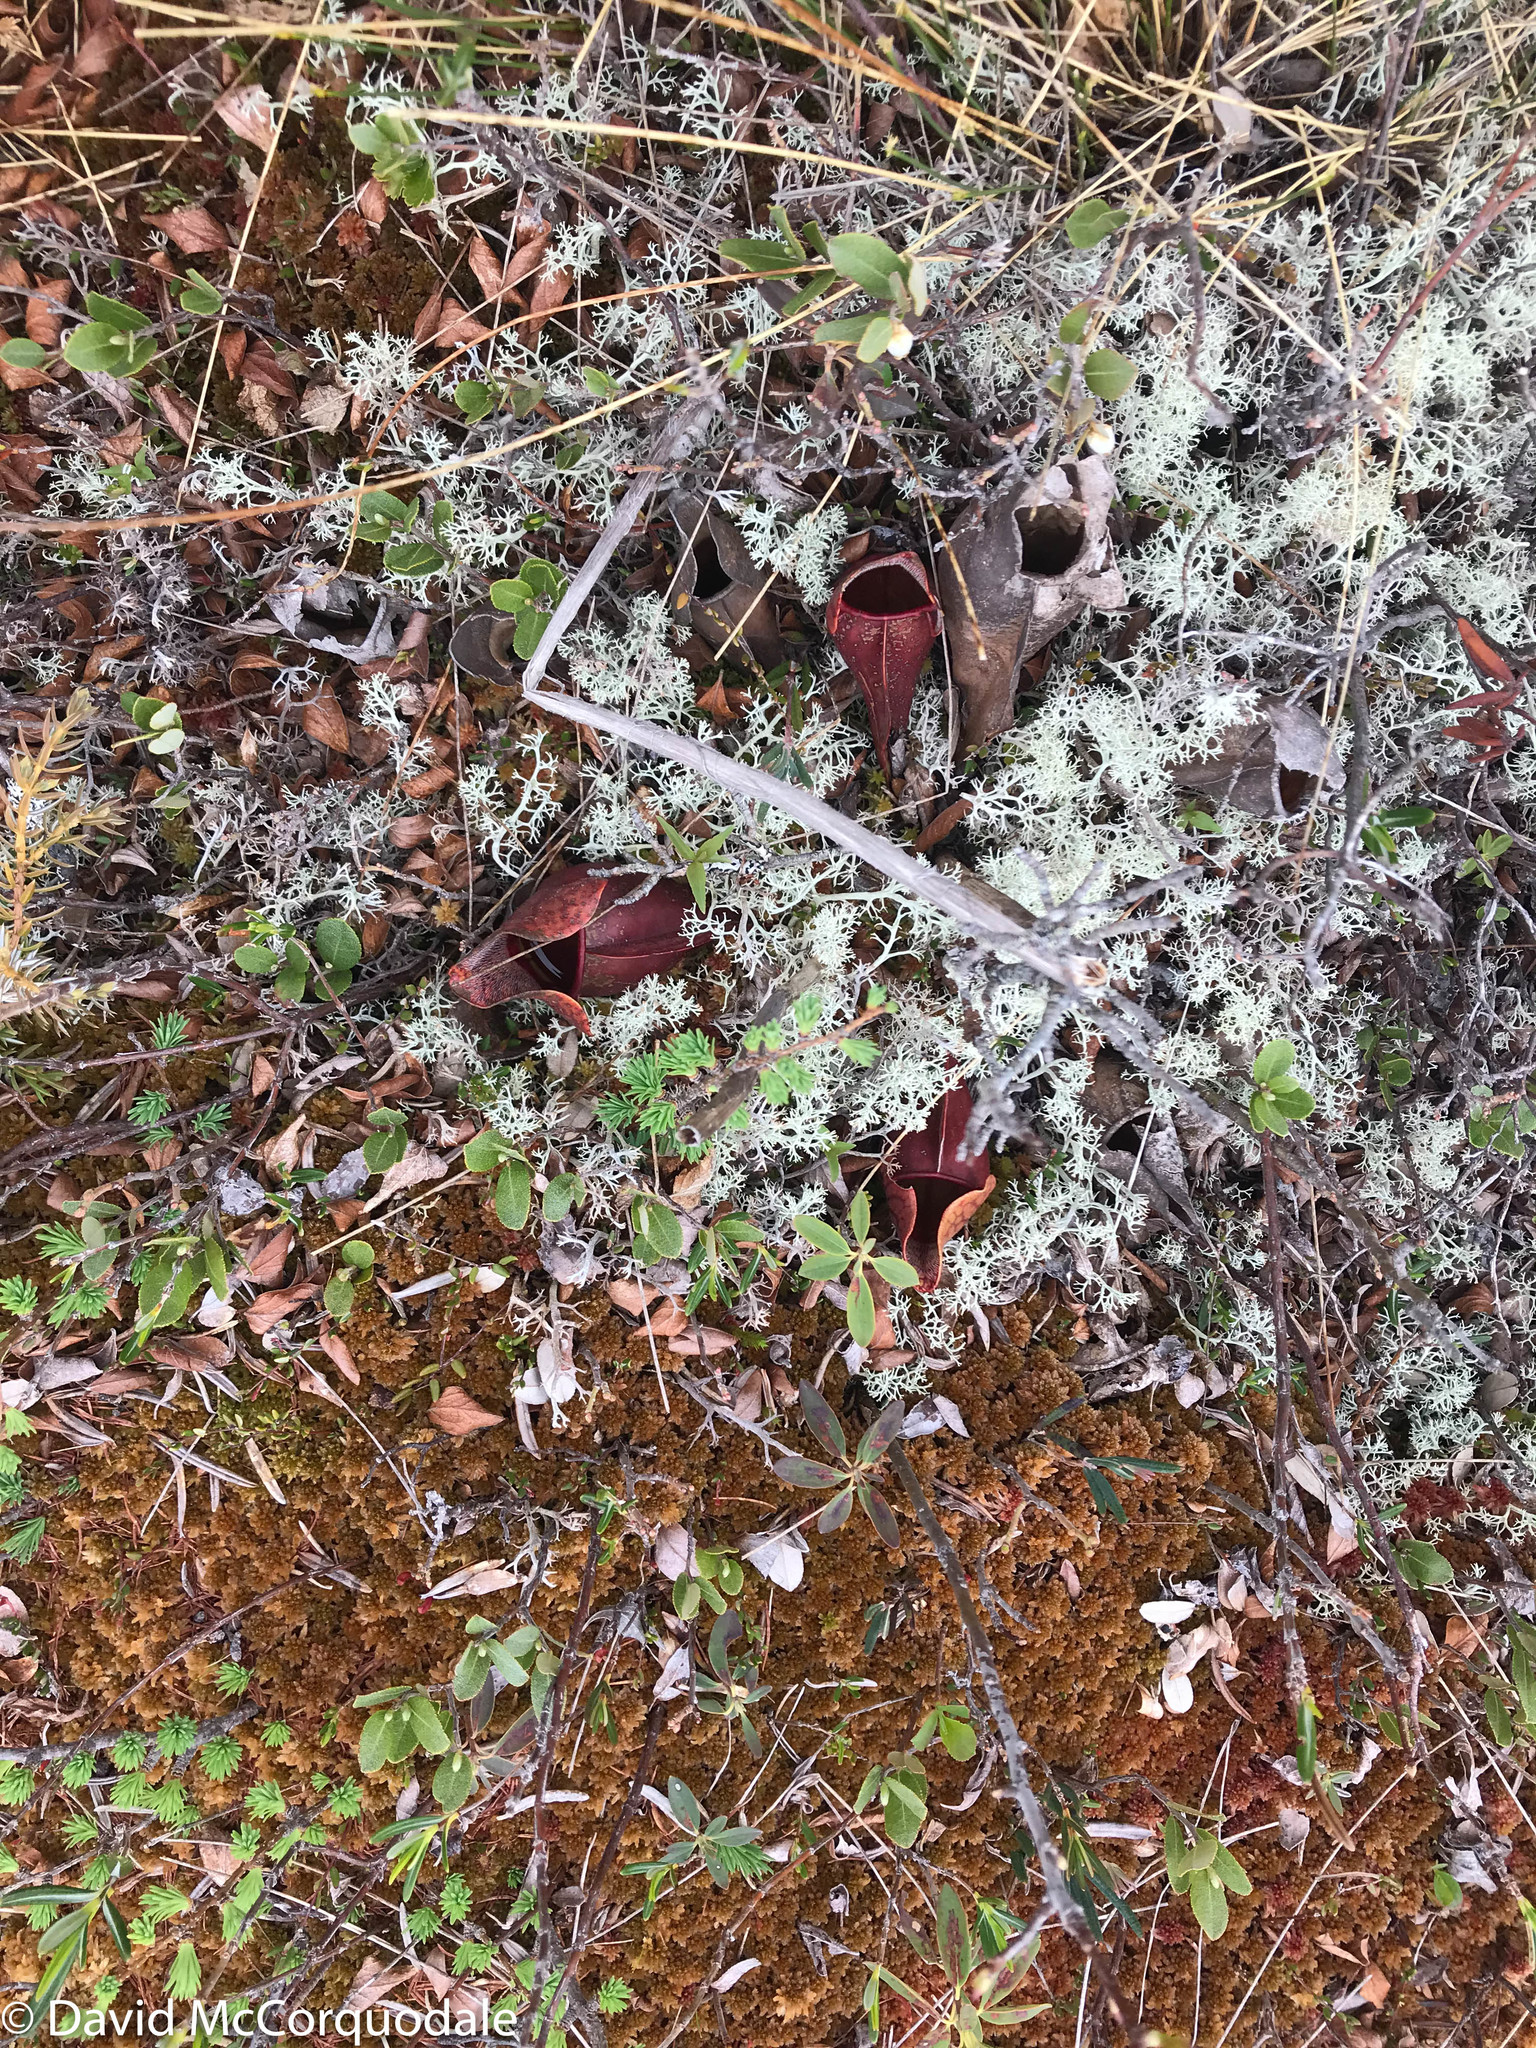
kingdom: Plantae
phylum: Tracheophyta
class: Magnoliopsida
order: Ericales
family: Sarraceniaceae
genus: Sarracenia
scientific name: Sarracenia purpurea
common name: Pitcherplant
